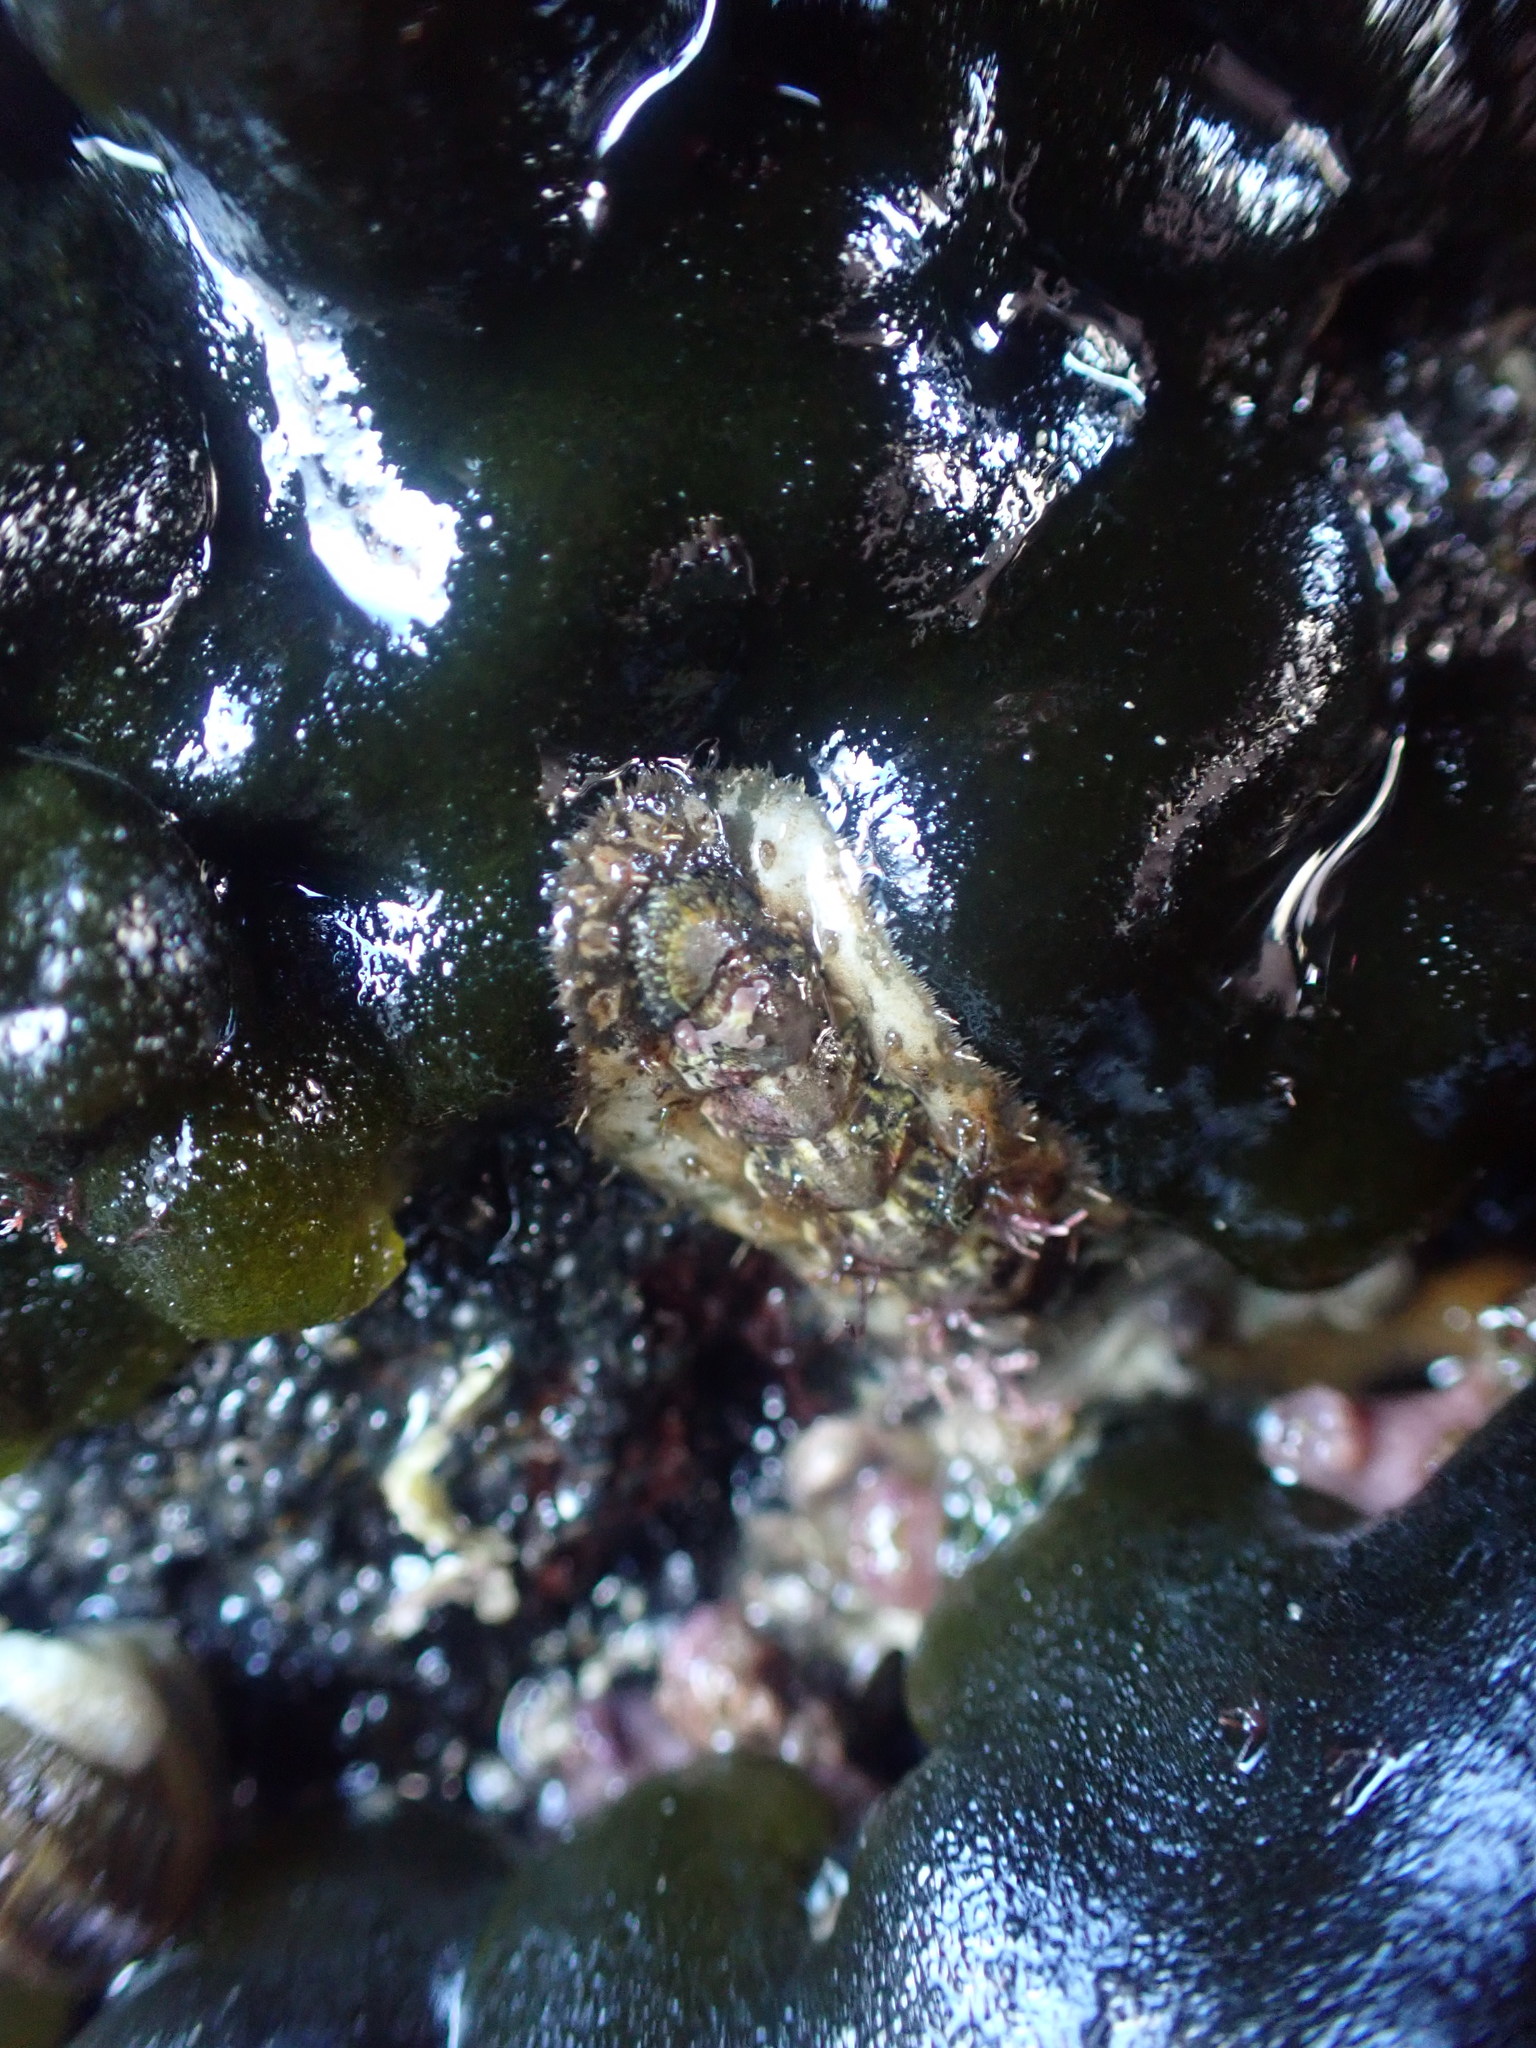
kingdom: Animalia
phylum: Mollusca
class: Polyplacophora
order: Chitonida
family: Mopaliidae
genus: Plaxiphora
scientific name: Plaxiphora caelata
